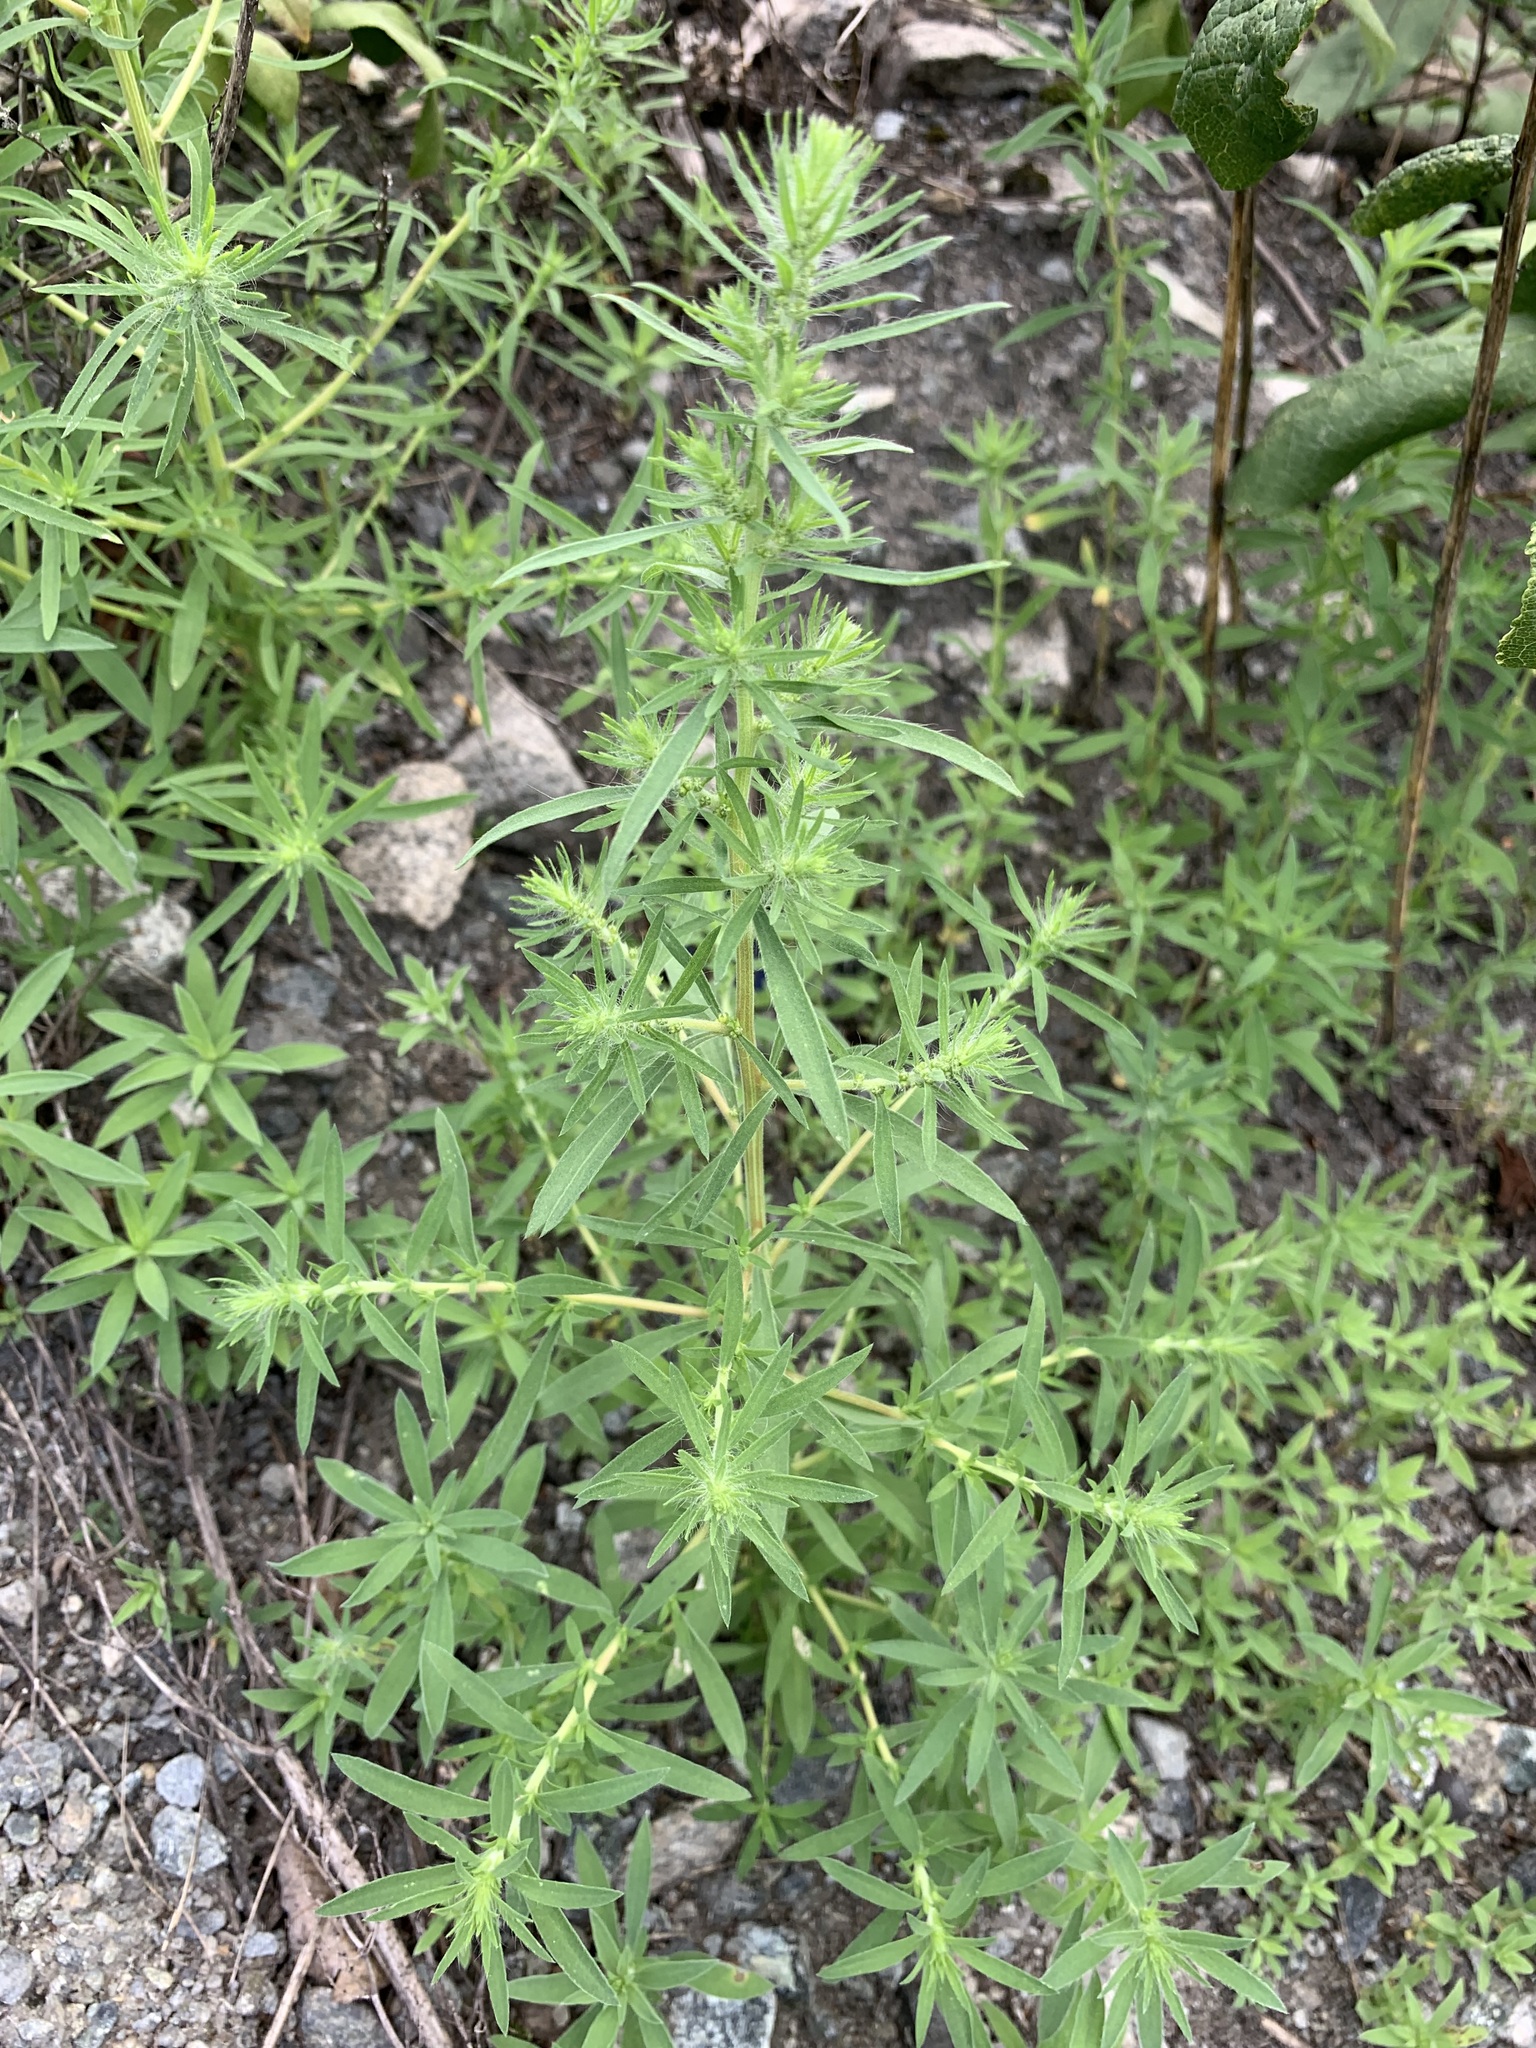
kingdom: Plantae
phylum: Tracheophyta
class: Magnoliopsida
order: Caryophyllales
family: Amaranthaceae
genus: Bassia
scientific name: Bassia scoparia
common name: Belvedere
